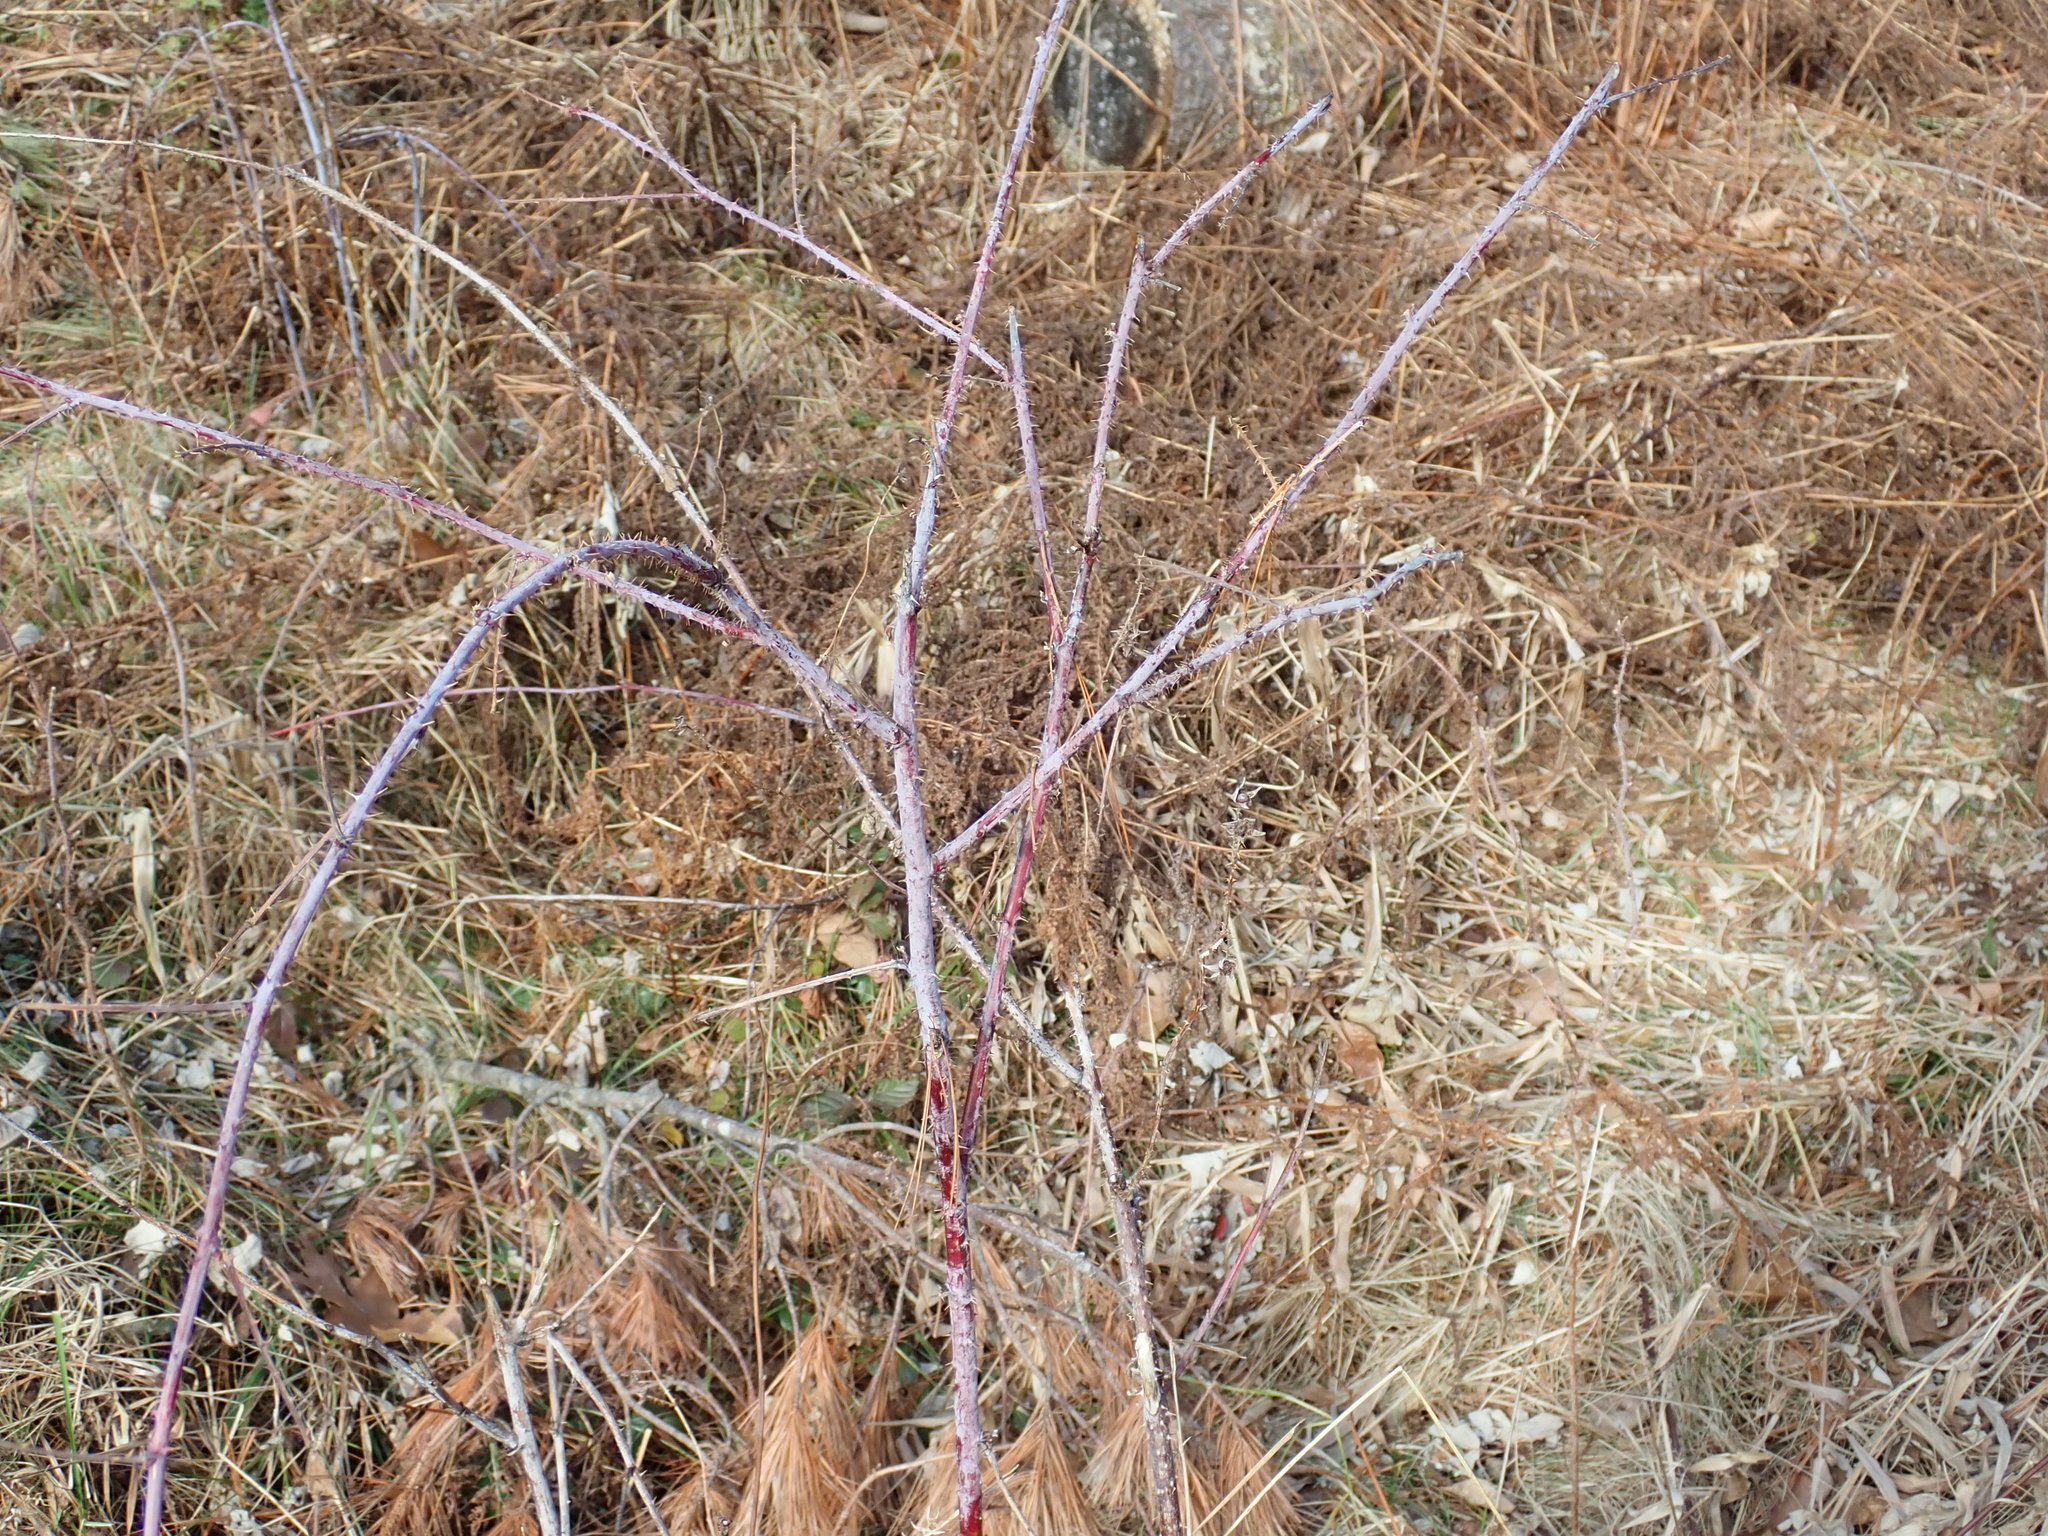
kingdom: Plantae
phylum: Tracheophyta
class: Magnoliopsida
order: Rosales
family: Rosaceae
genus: Rubus
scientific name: Rubus occidentalis
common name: Black raspberry
